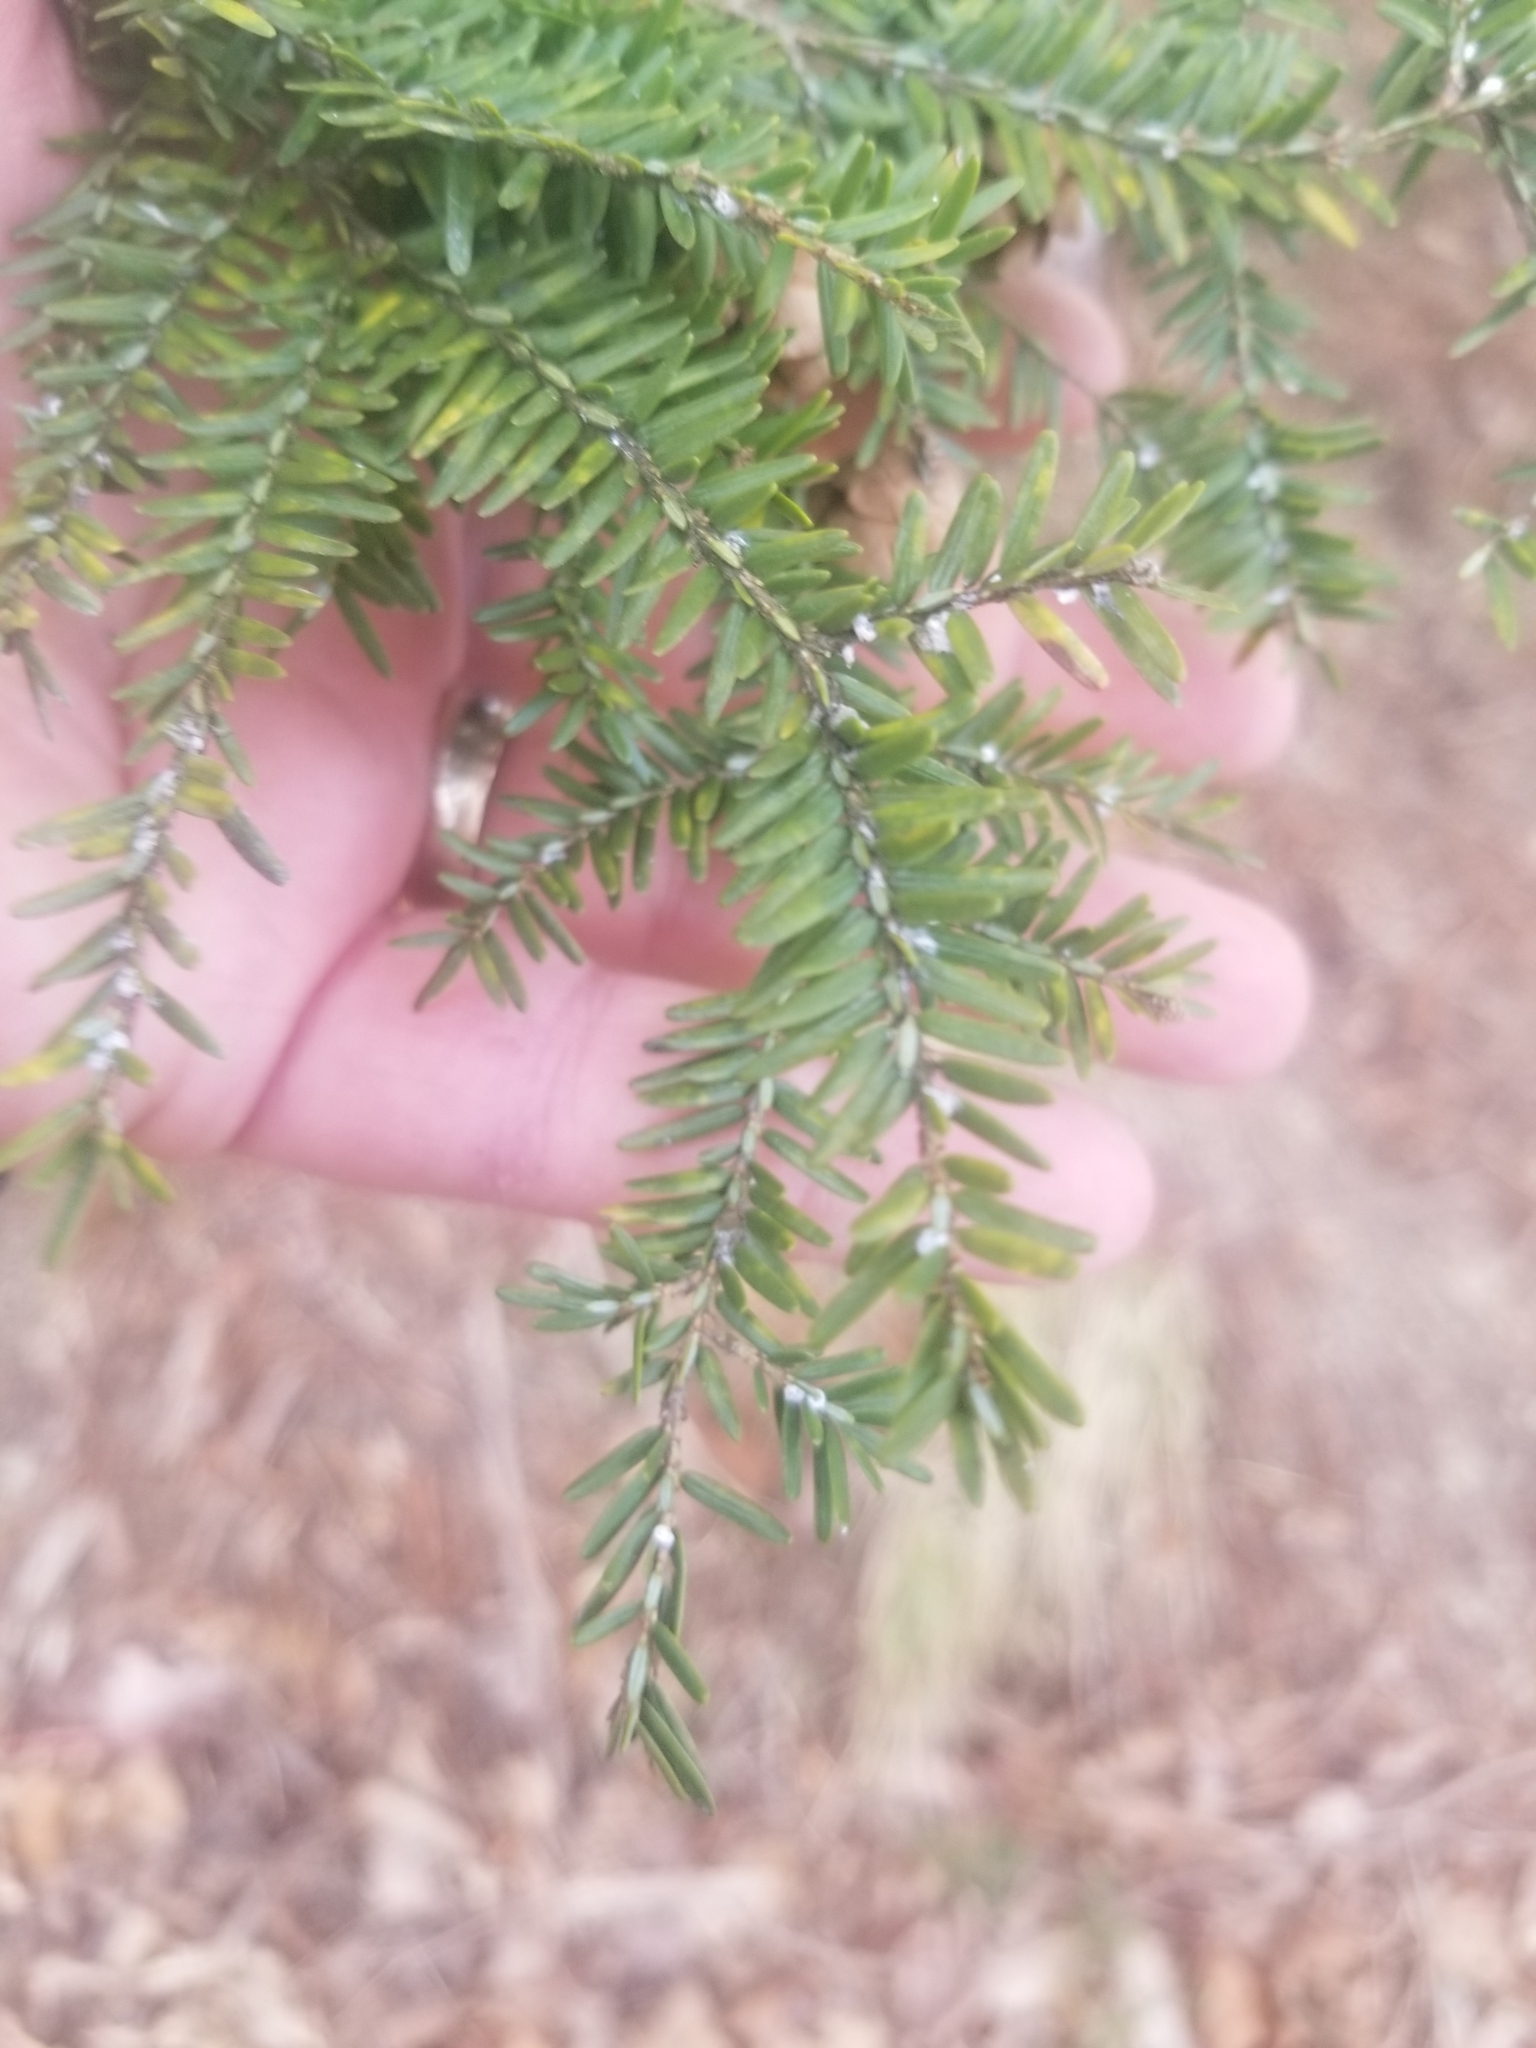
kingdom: Animalia
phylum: Arthropoda
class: Insecta
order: Hemiptera
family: Adelgidae
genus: Adelges
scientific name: Adelges tsugae
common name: Hemlock woolly adelgid
